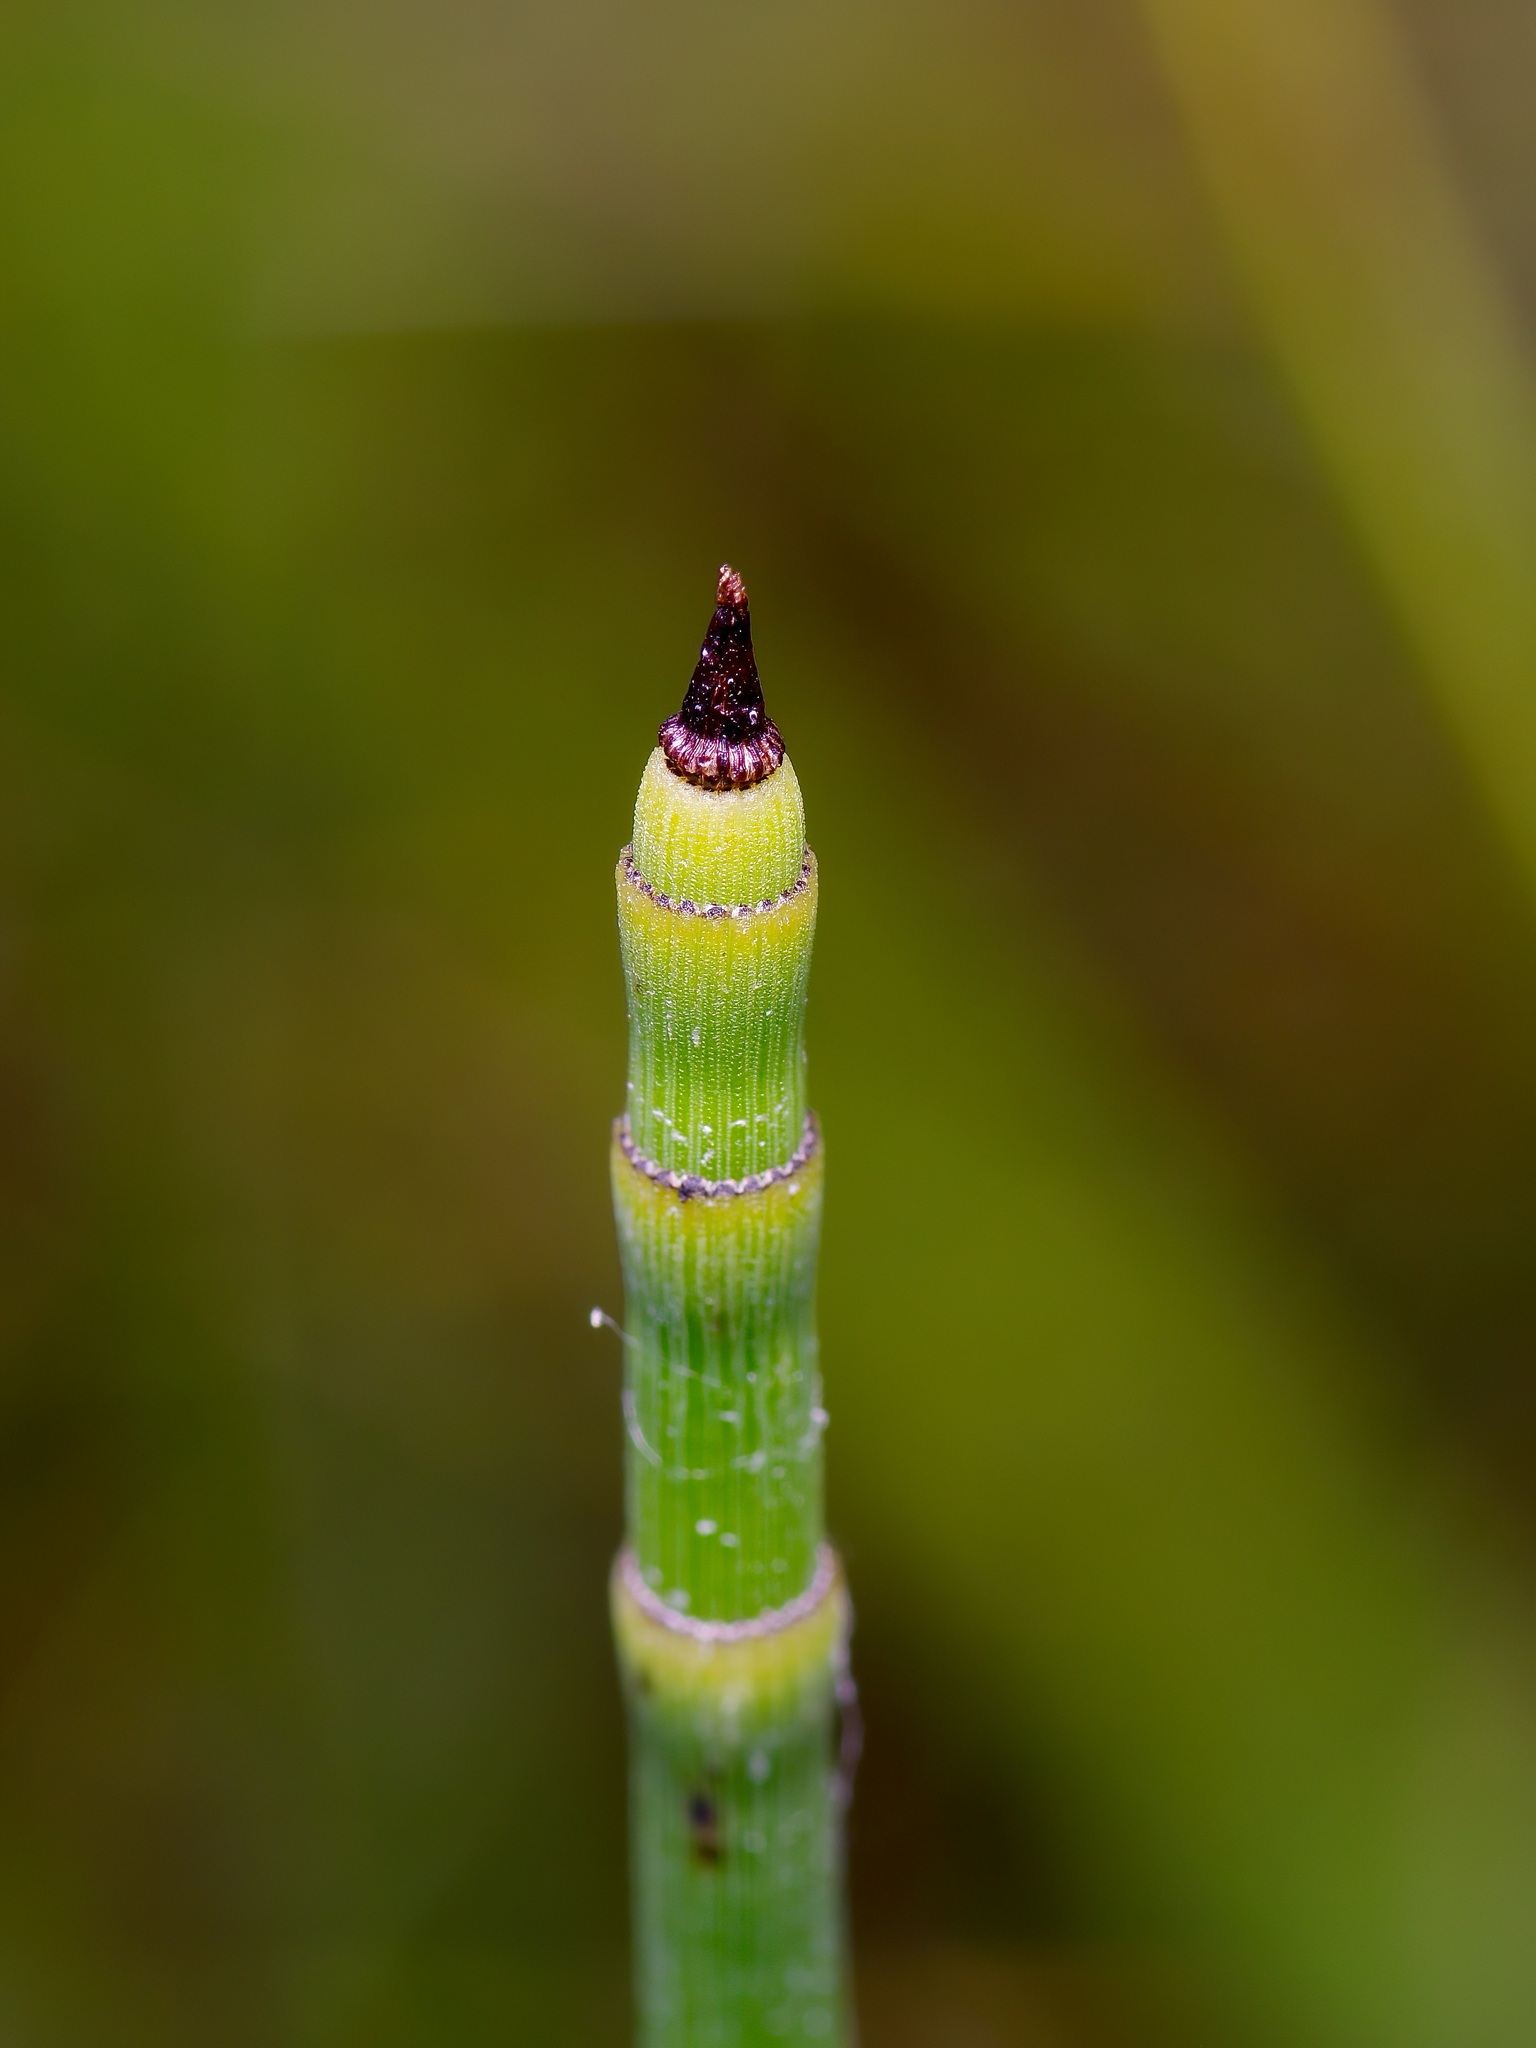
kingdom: Plantae
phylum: Tracheophyta
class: Polypodiopsida
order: Equisetales
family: Equisetaceae
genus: Equisetum
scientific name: Equisetum praealtum
